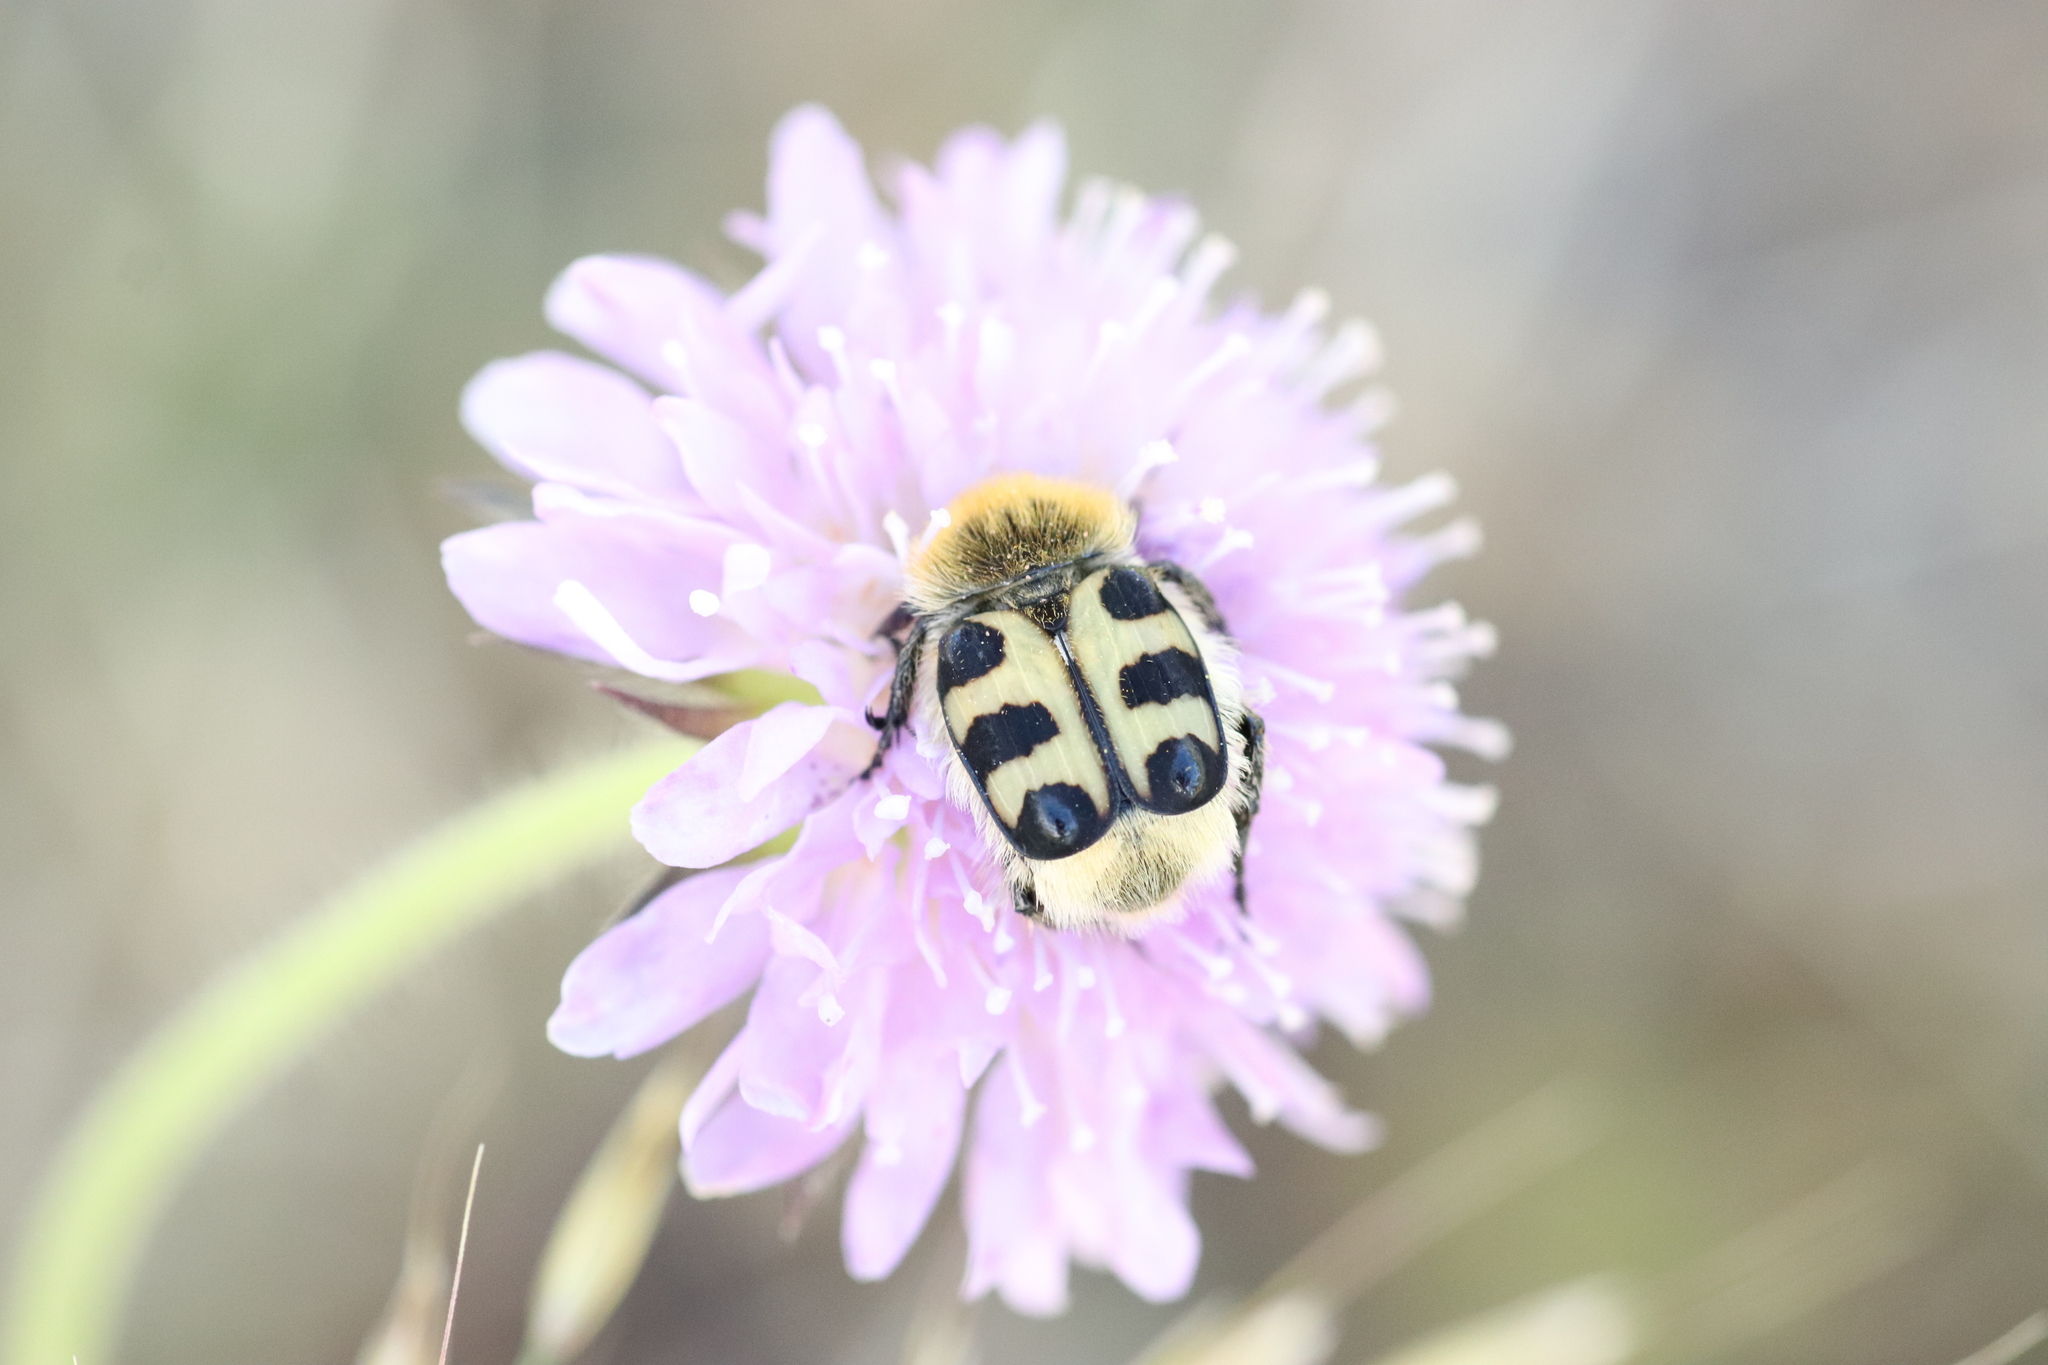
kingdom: Animalia
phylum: Arthropoda
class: Insecta
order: Coleoptera
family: Scarabaeidae
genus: Trichius
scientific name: Trichius gallicus
